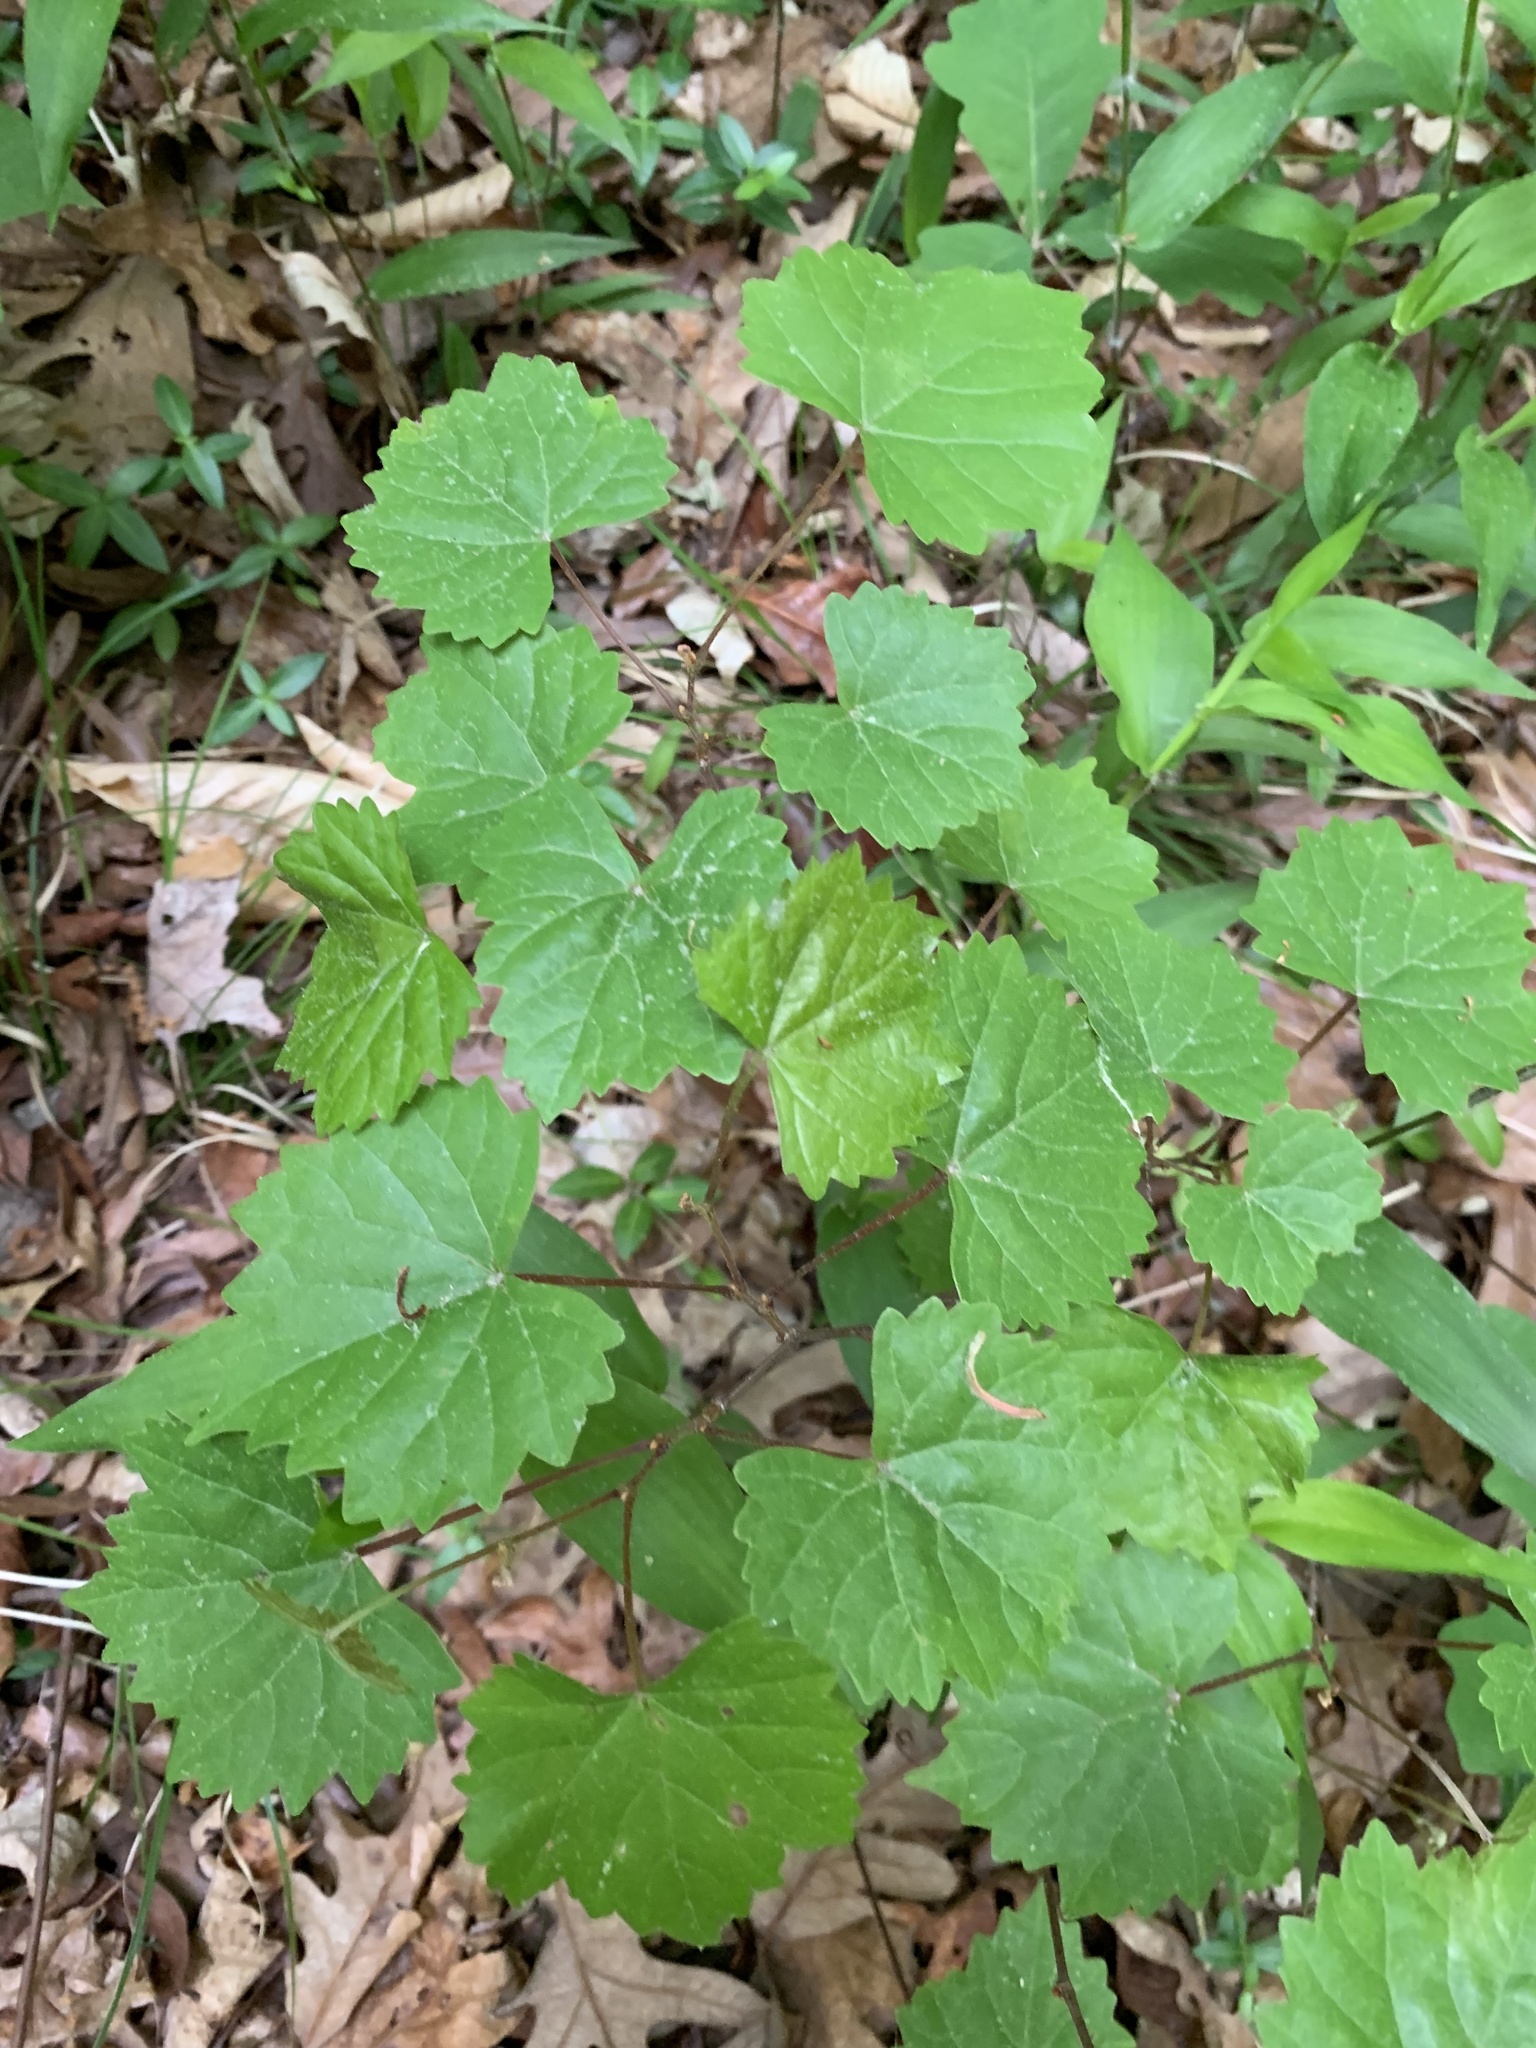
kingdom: Plantae
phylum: Tracheophyta
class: Magnoliopsida
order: Vitales
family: Vitaceae
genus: Vitis
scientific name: Vitis rotundifolia
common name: Muscadine grape
